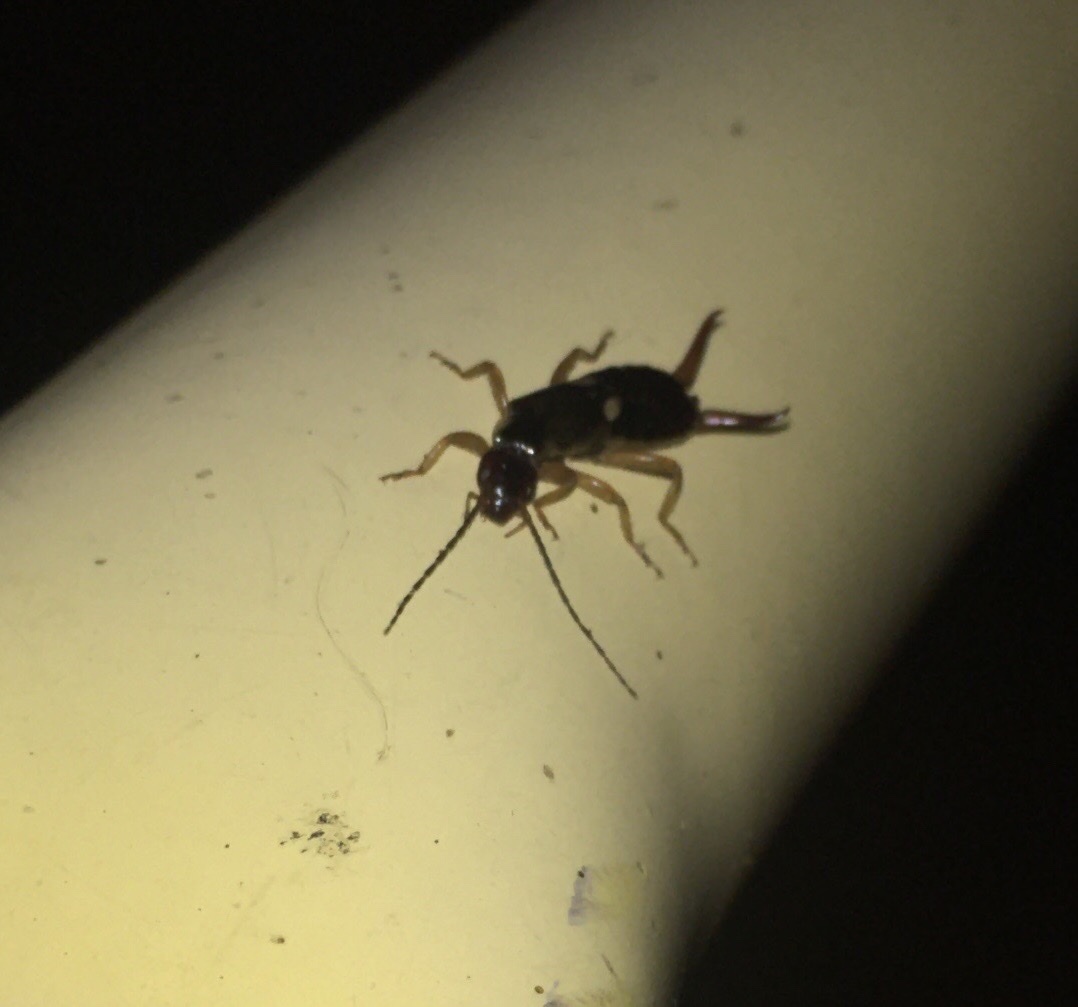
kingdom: Animalia
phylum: Arthropoda
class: Insecta
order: Dermaptera
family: Forficulidae
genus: Forficula
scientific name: Forficula
